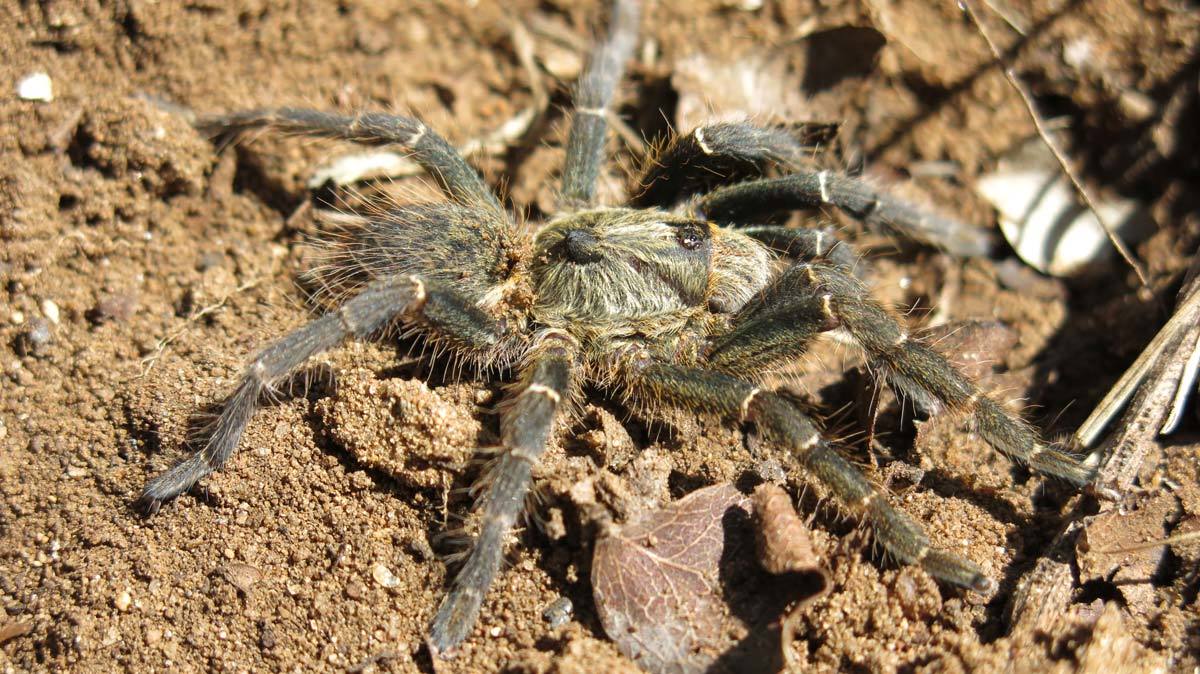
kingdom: Animalia
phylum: Arthropoda
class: Arachnida
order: Araneae
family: Theraphosidae
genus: Ceratogyrus
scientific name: Ceratogyrus darlingi
